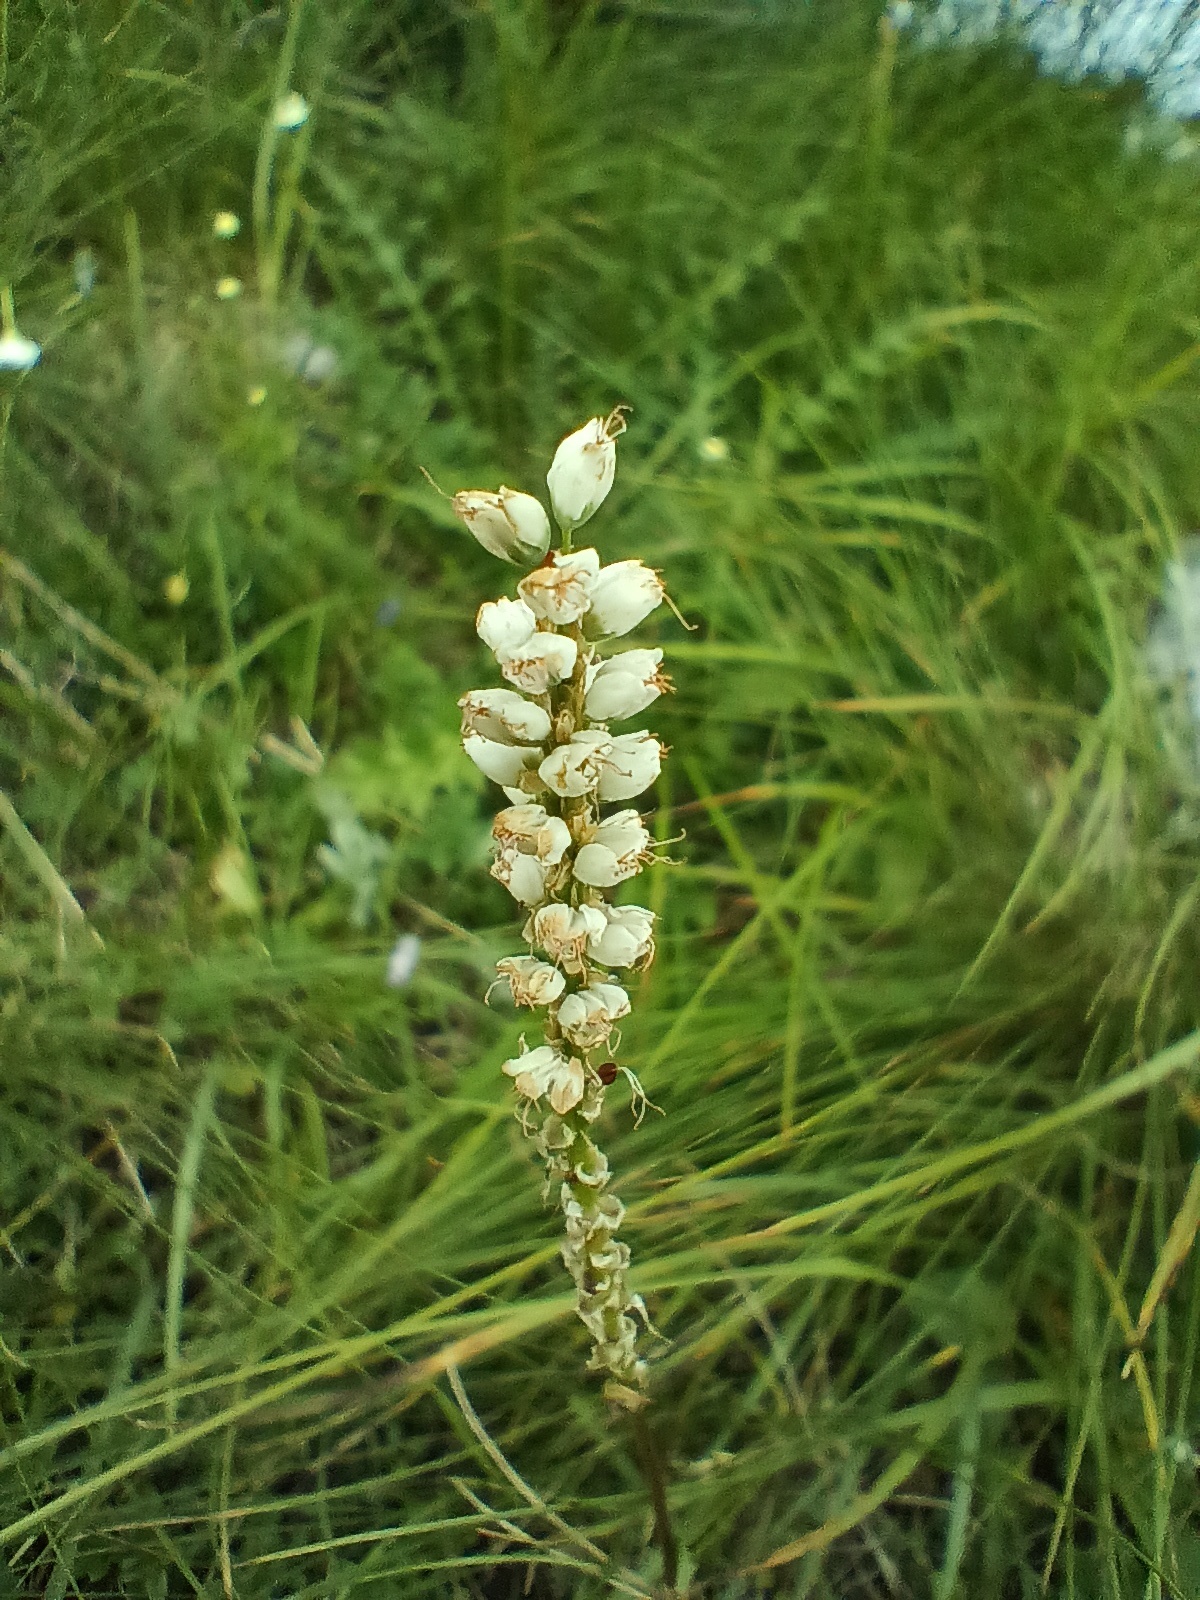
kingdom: Plantae
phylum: Tracheophyta
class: Magnoliopsida
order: Caryophyllales
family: Polygonaceae
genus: Bistorta
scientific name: Bistorta vivipara
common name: Alpine bistort
